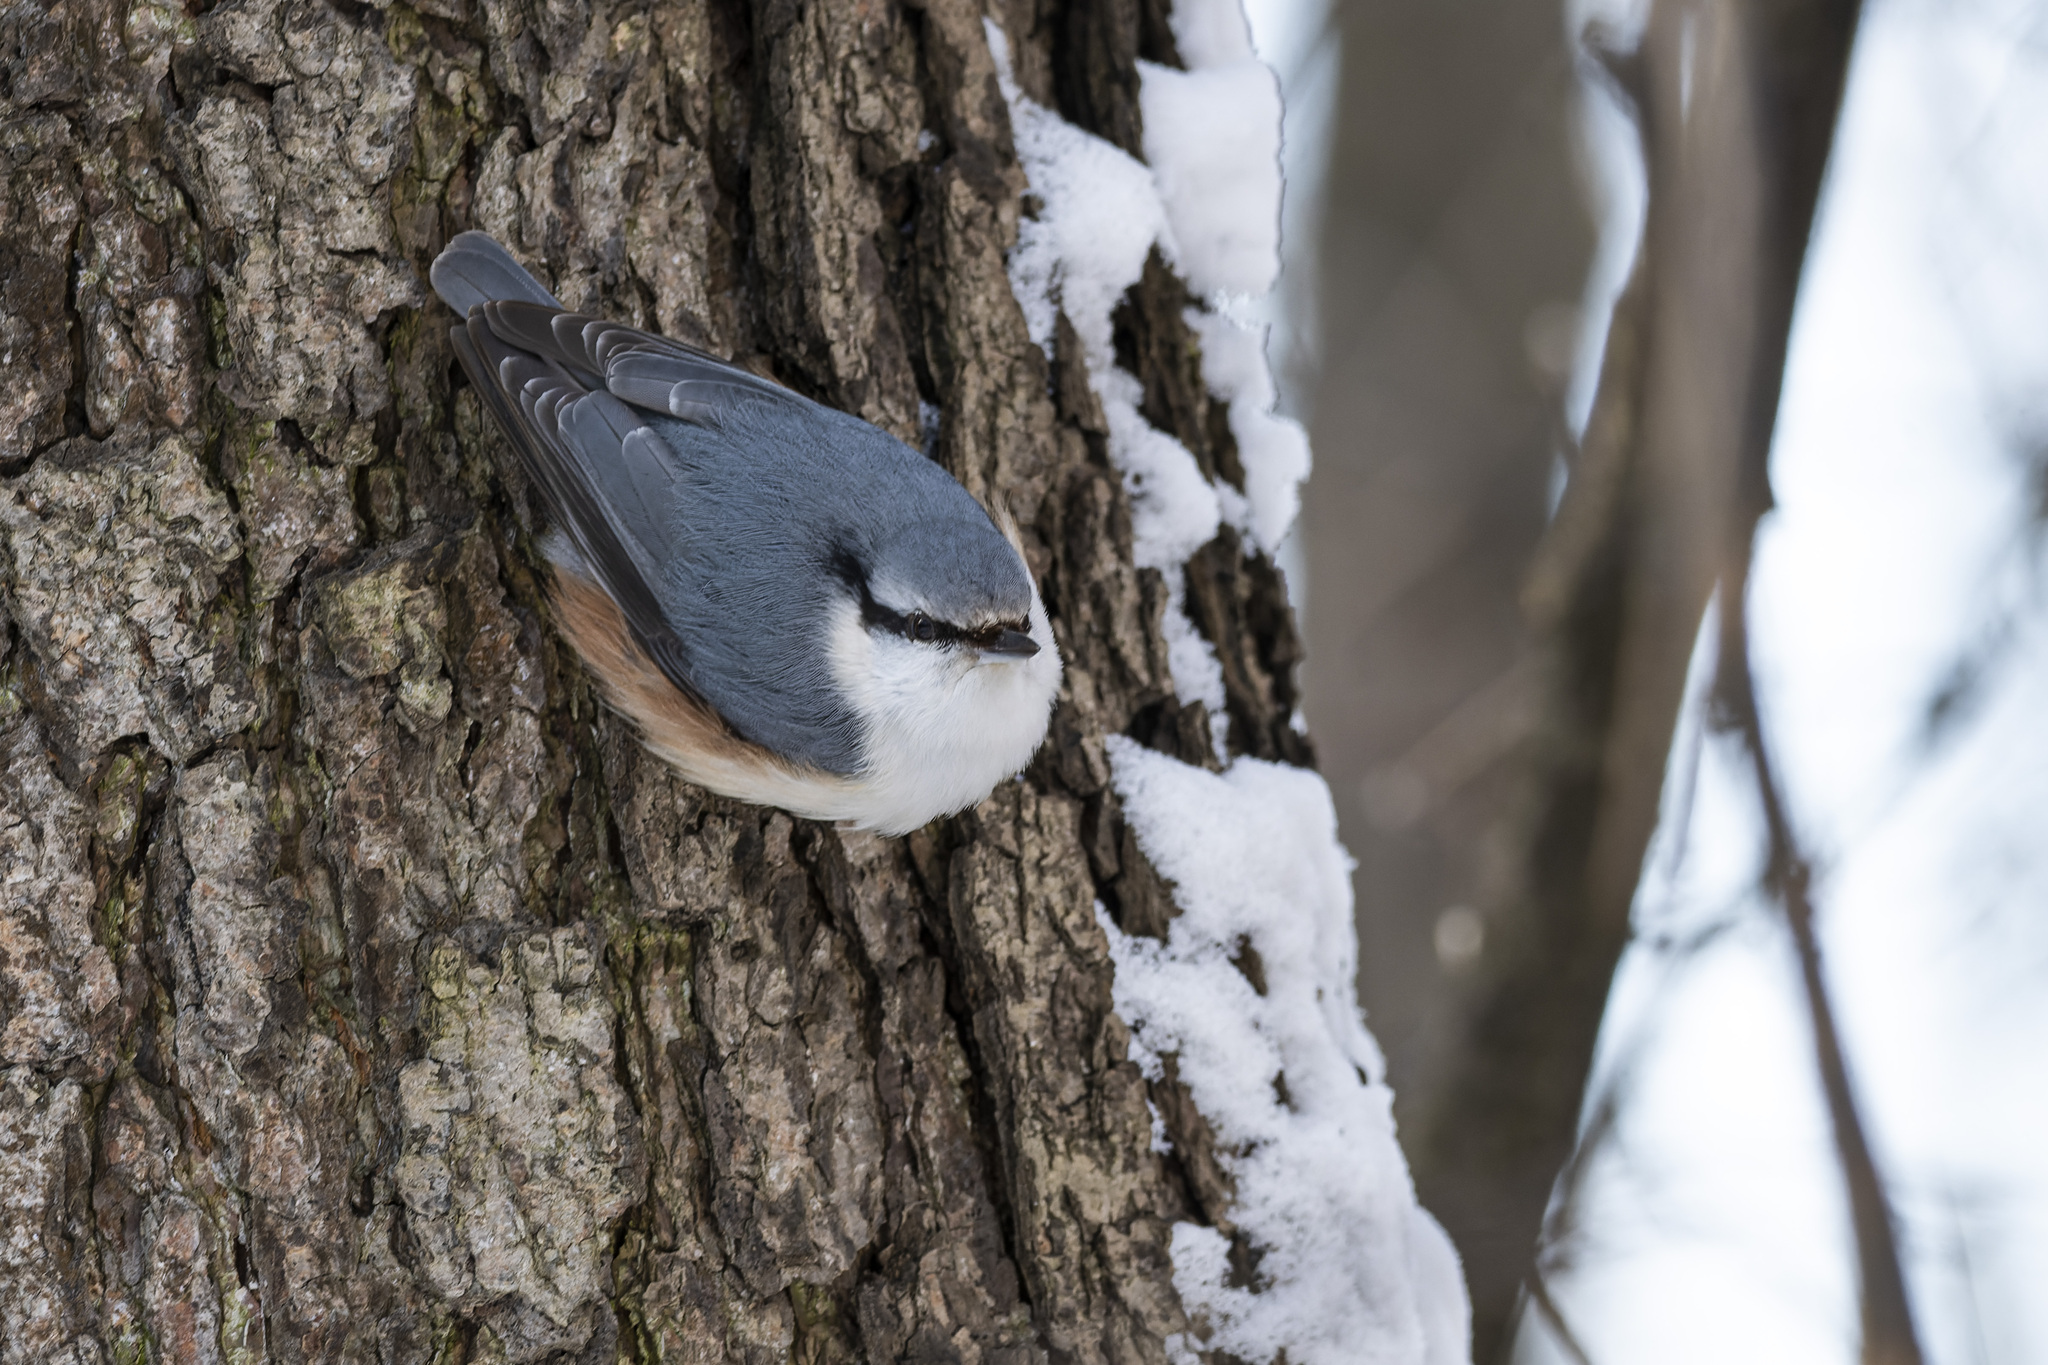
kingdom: Animalia
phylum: Chordata
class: Aves
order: Passeriformes
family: Sittidae
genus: Sitta
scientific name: Sitta europaea
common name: Eurasian nuthatch
